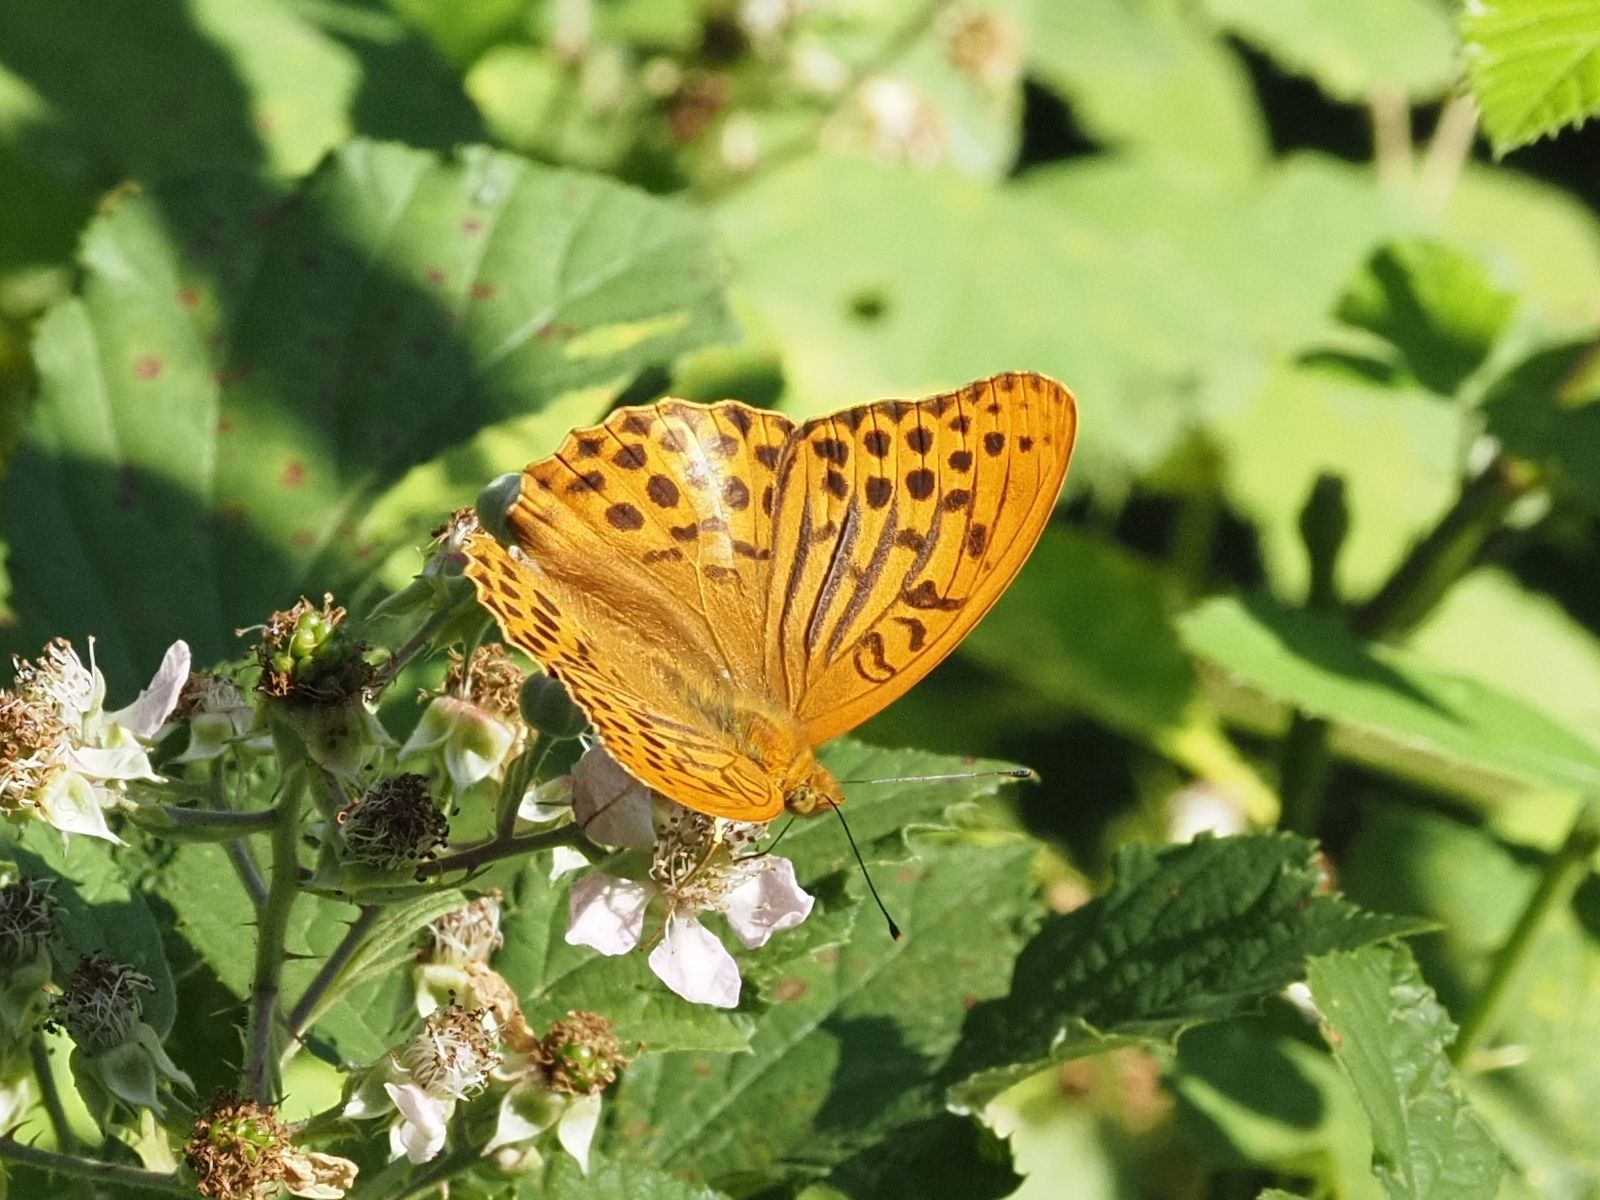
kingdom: Animalia
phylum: Arthropoda
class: Insecta
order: Lepidoptera
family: Nymphalidae
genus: Argynnis
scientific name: Argynnis paphia
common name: Silver-washed fritillary
